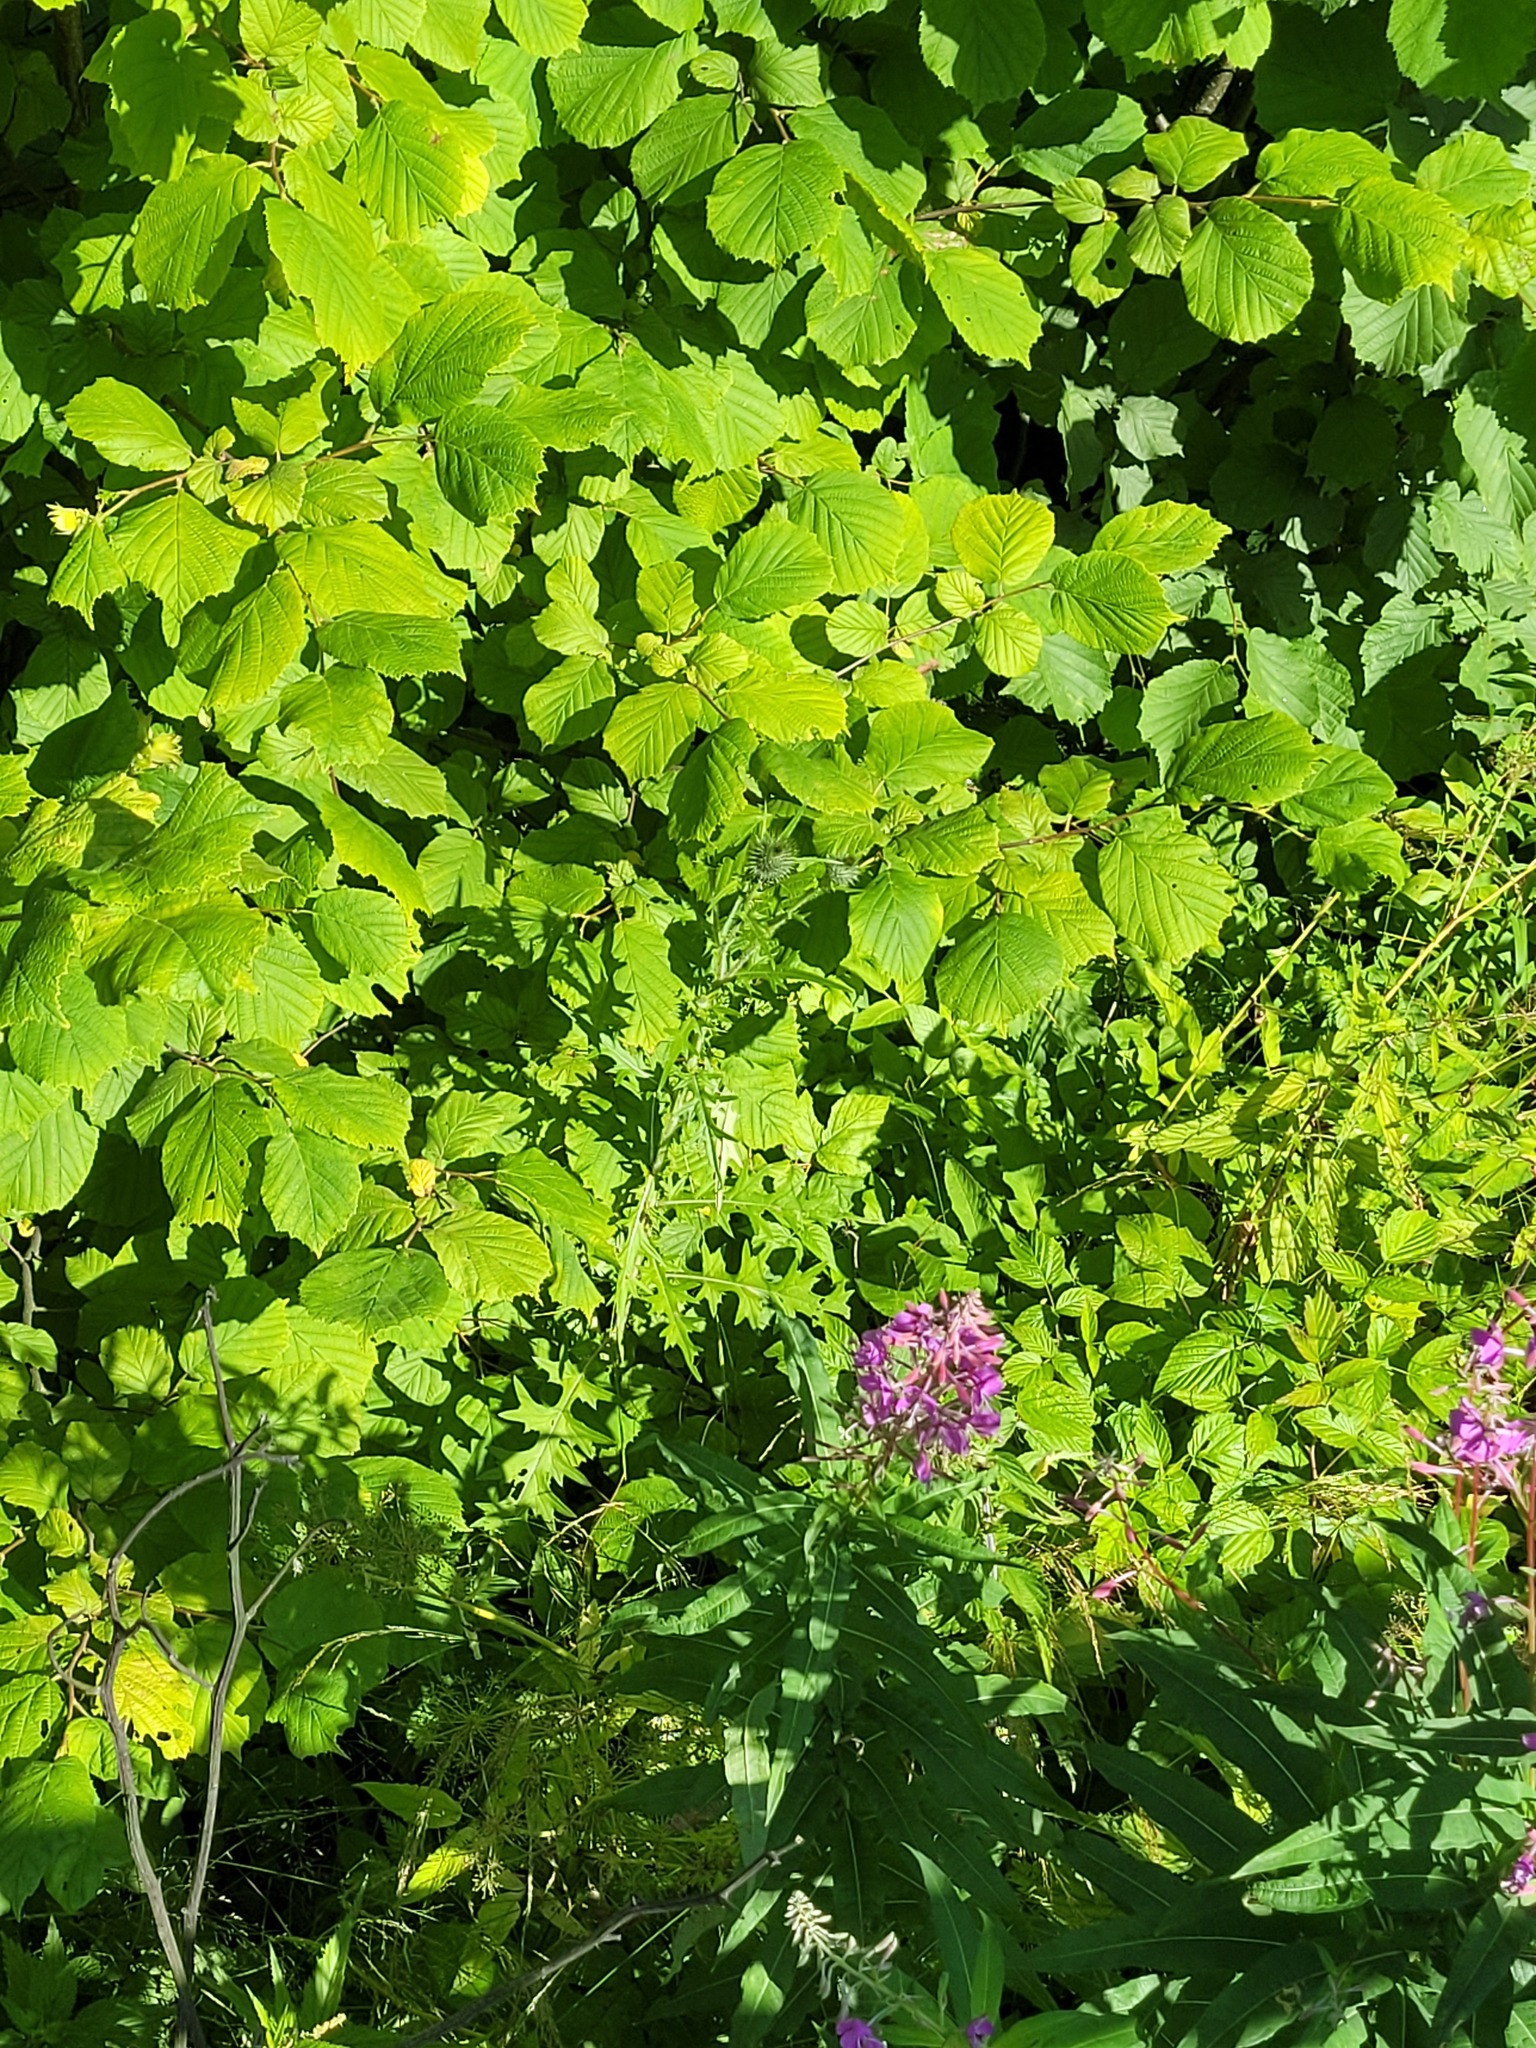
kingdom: Plantae
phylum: Tracheophyta
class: Magnoliopsida
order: Asterales
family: Asteraceae
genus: Cirsium
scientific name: Cirsium vulgare
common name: Bull thistle
